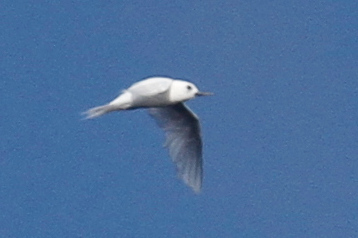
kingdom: Animalia
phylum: Chordata
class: Aves
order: Charadriiformes
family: Laridae
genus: Gygis
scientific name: Gygis alba
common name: White tern
